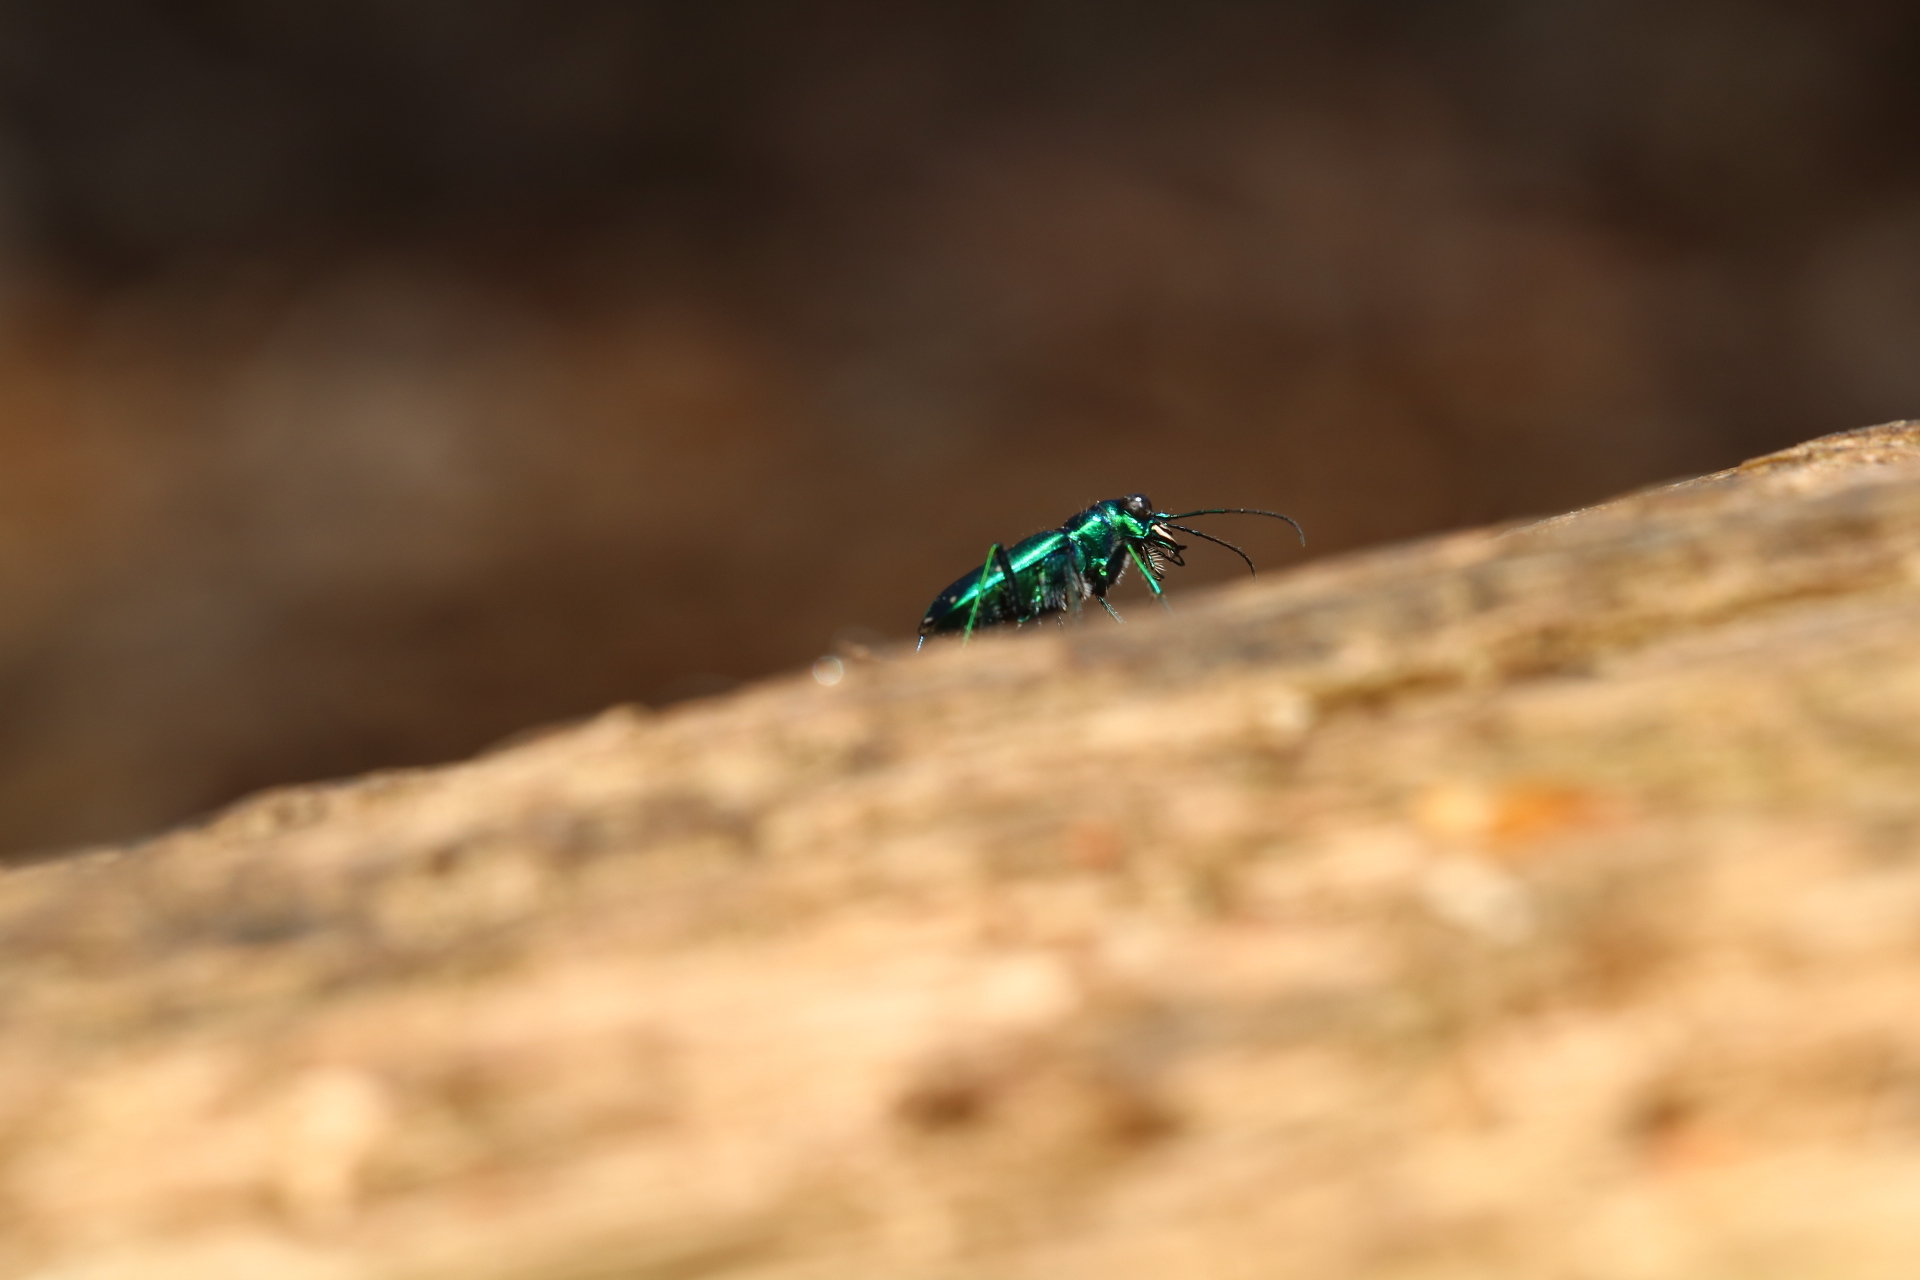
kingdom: Animalia
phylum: Arthropoda
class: Insecta
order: Coleoptera
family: Carabidae
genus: Cicindela
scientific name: Cicindela sexguttata
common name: Six-spotted tiger beetle
